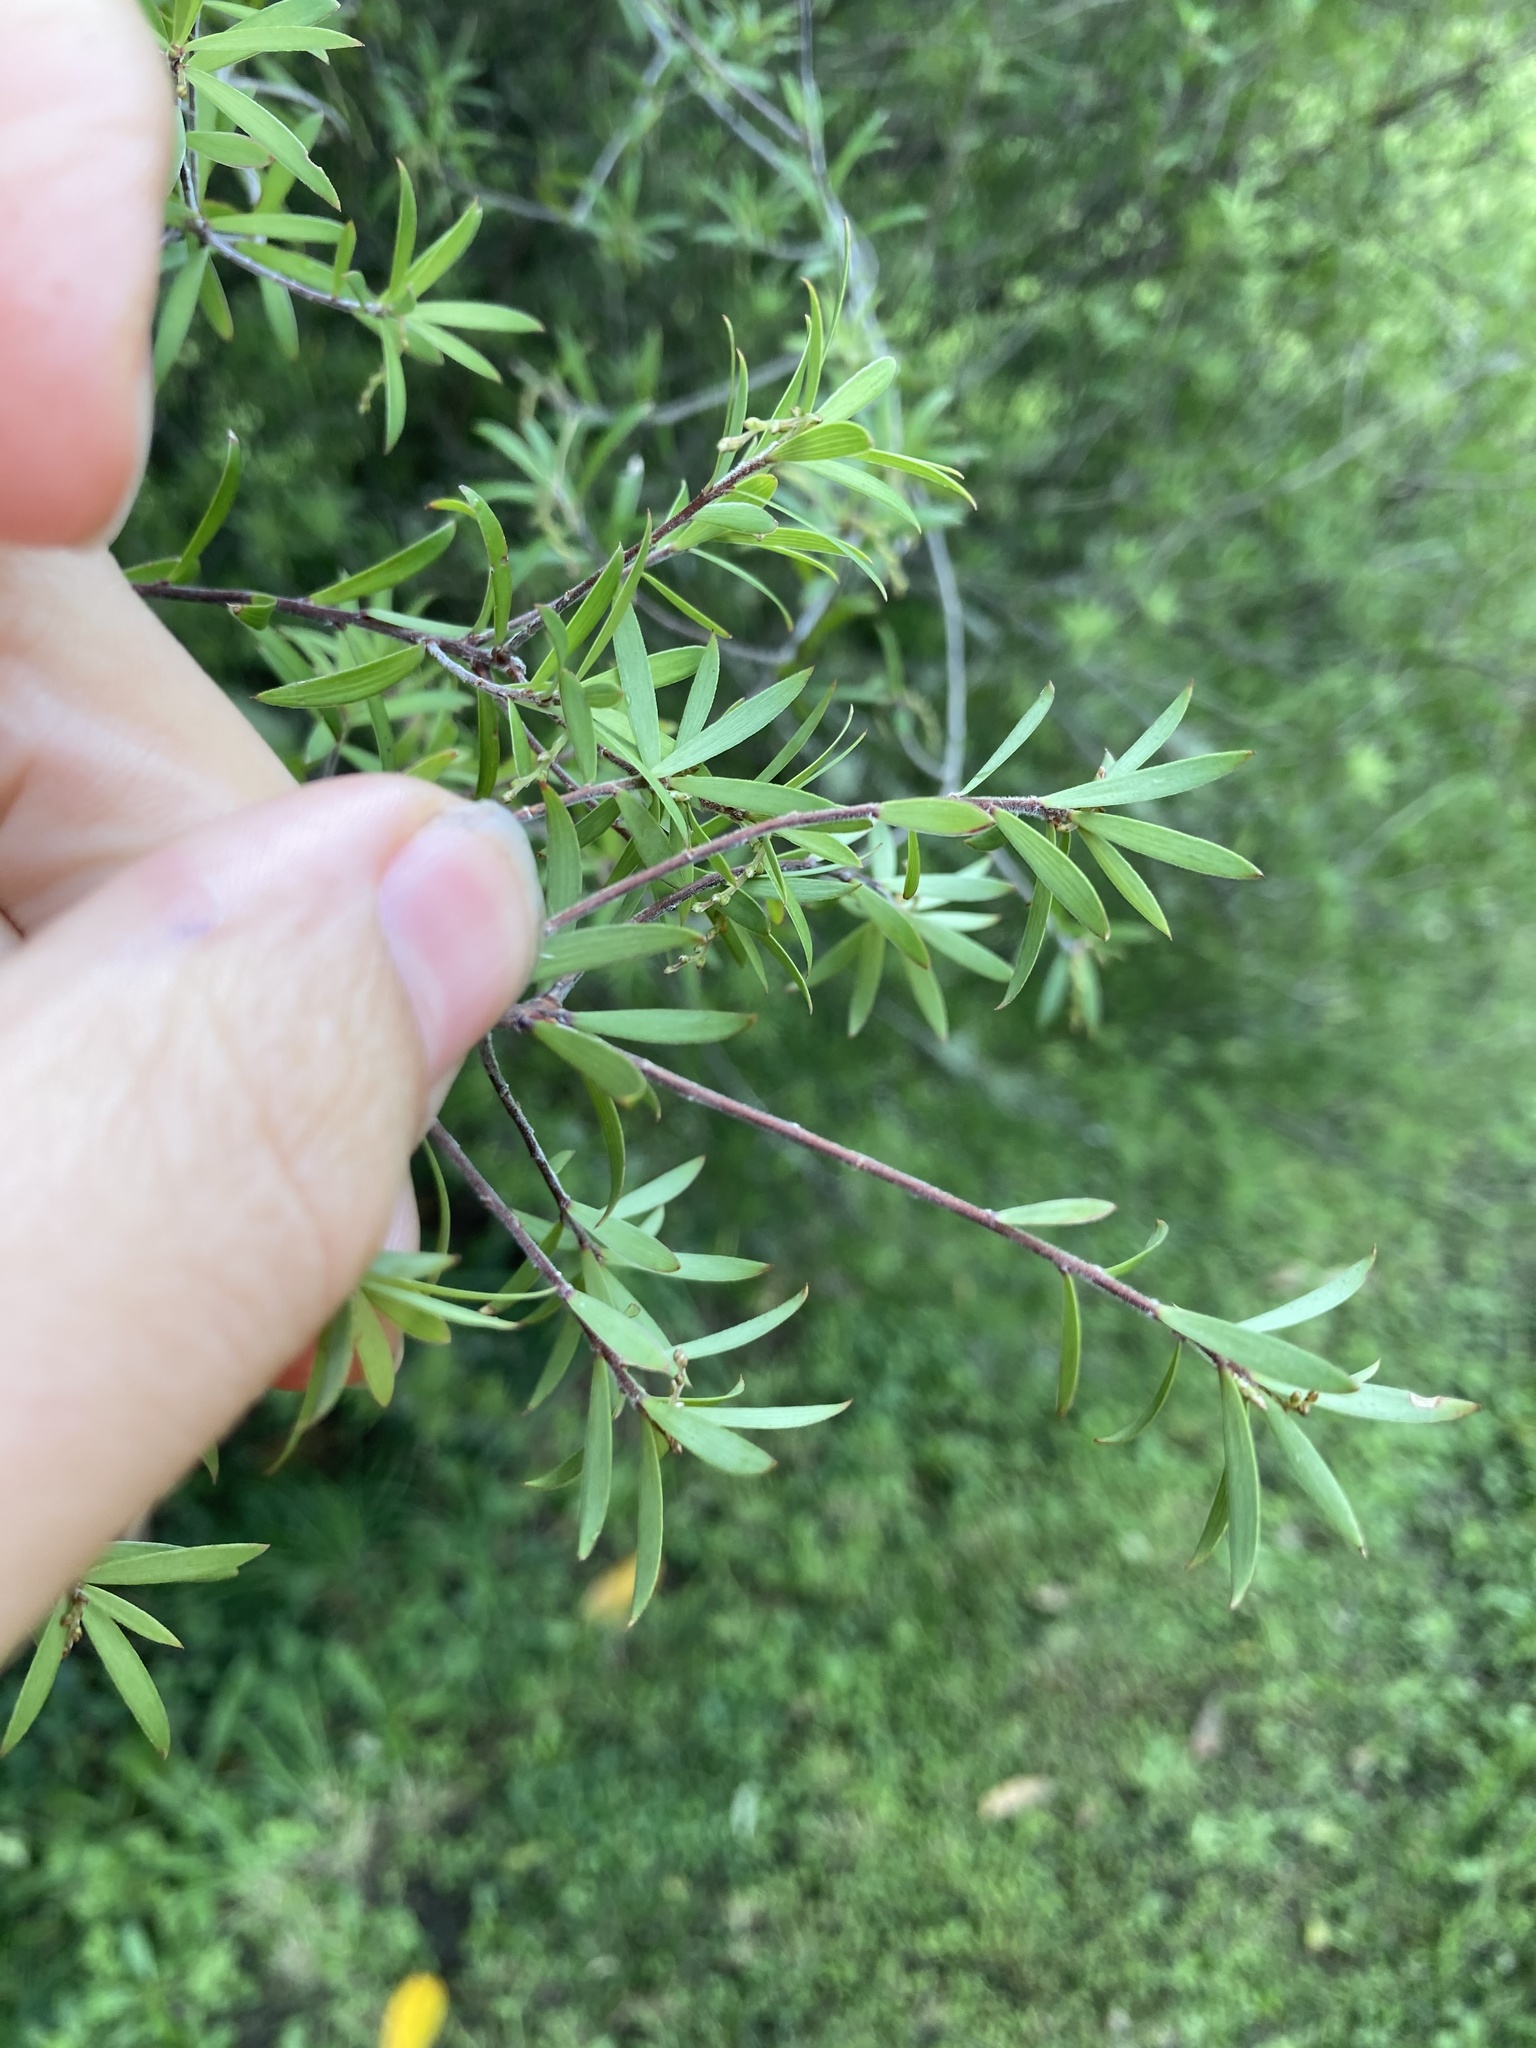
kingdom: Plantae
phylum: Tracheophyta
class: Magnoliopsida
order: Ericales
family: Ericaceae
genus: Leucopogon
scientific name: Leucopogon fasciculatus
